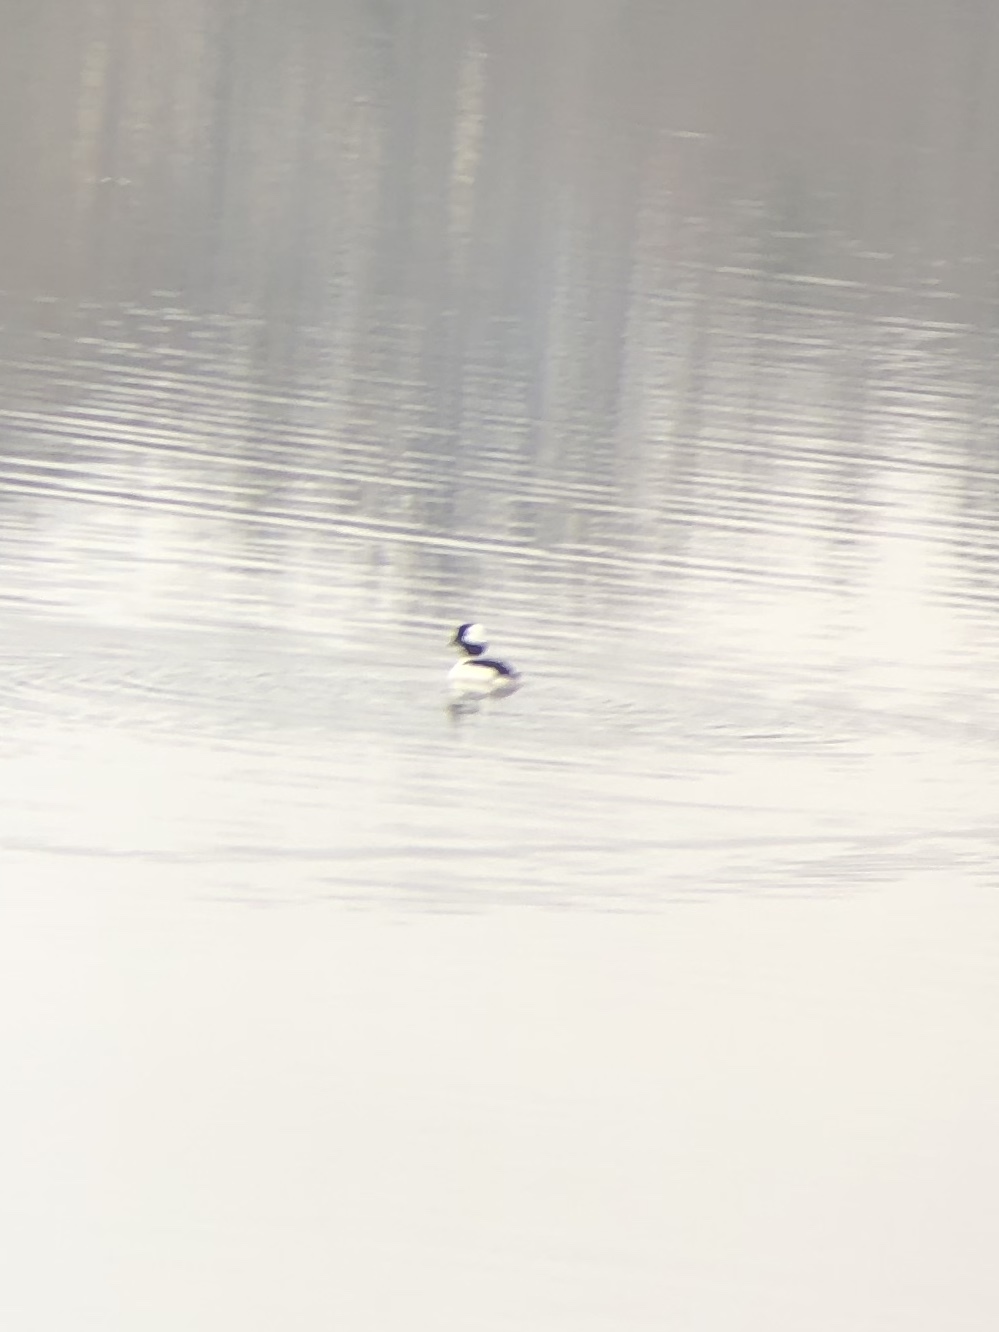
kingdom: Animalia
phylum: Chordata
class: Aves
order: Anseriformes
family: Anatidae
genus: Bucephala
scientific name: Bucephala albeola
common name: Bufflehead
